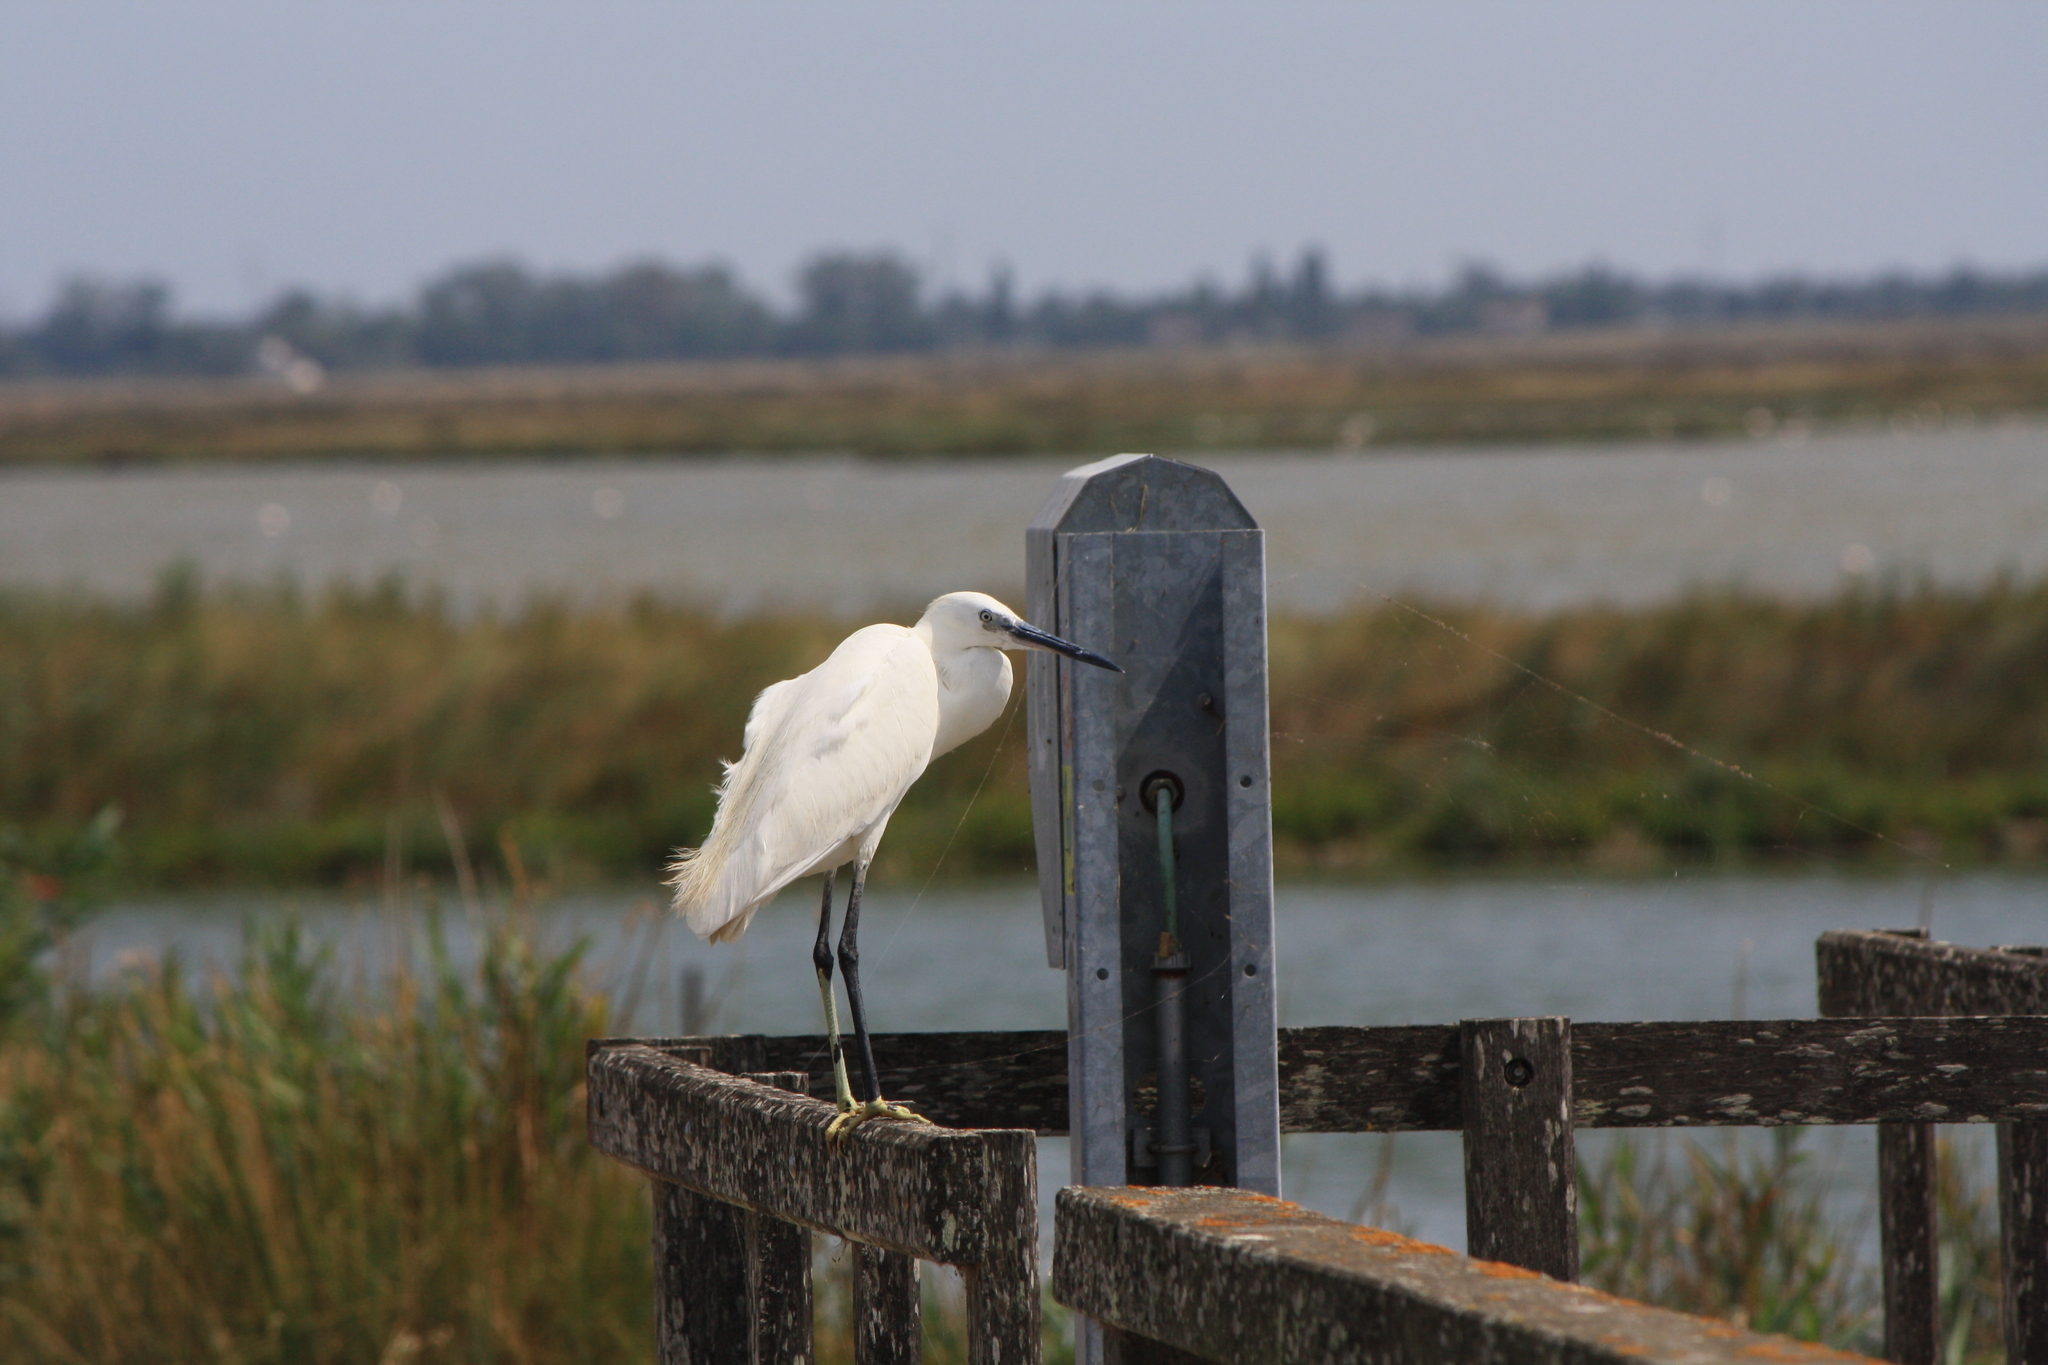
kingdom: Animalia
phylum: Chordata
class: Aves
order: Pelecaniformes
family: Ardeidae
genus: Egretta
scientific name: Egretta garzetta
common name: Little egret
